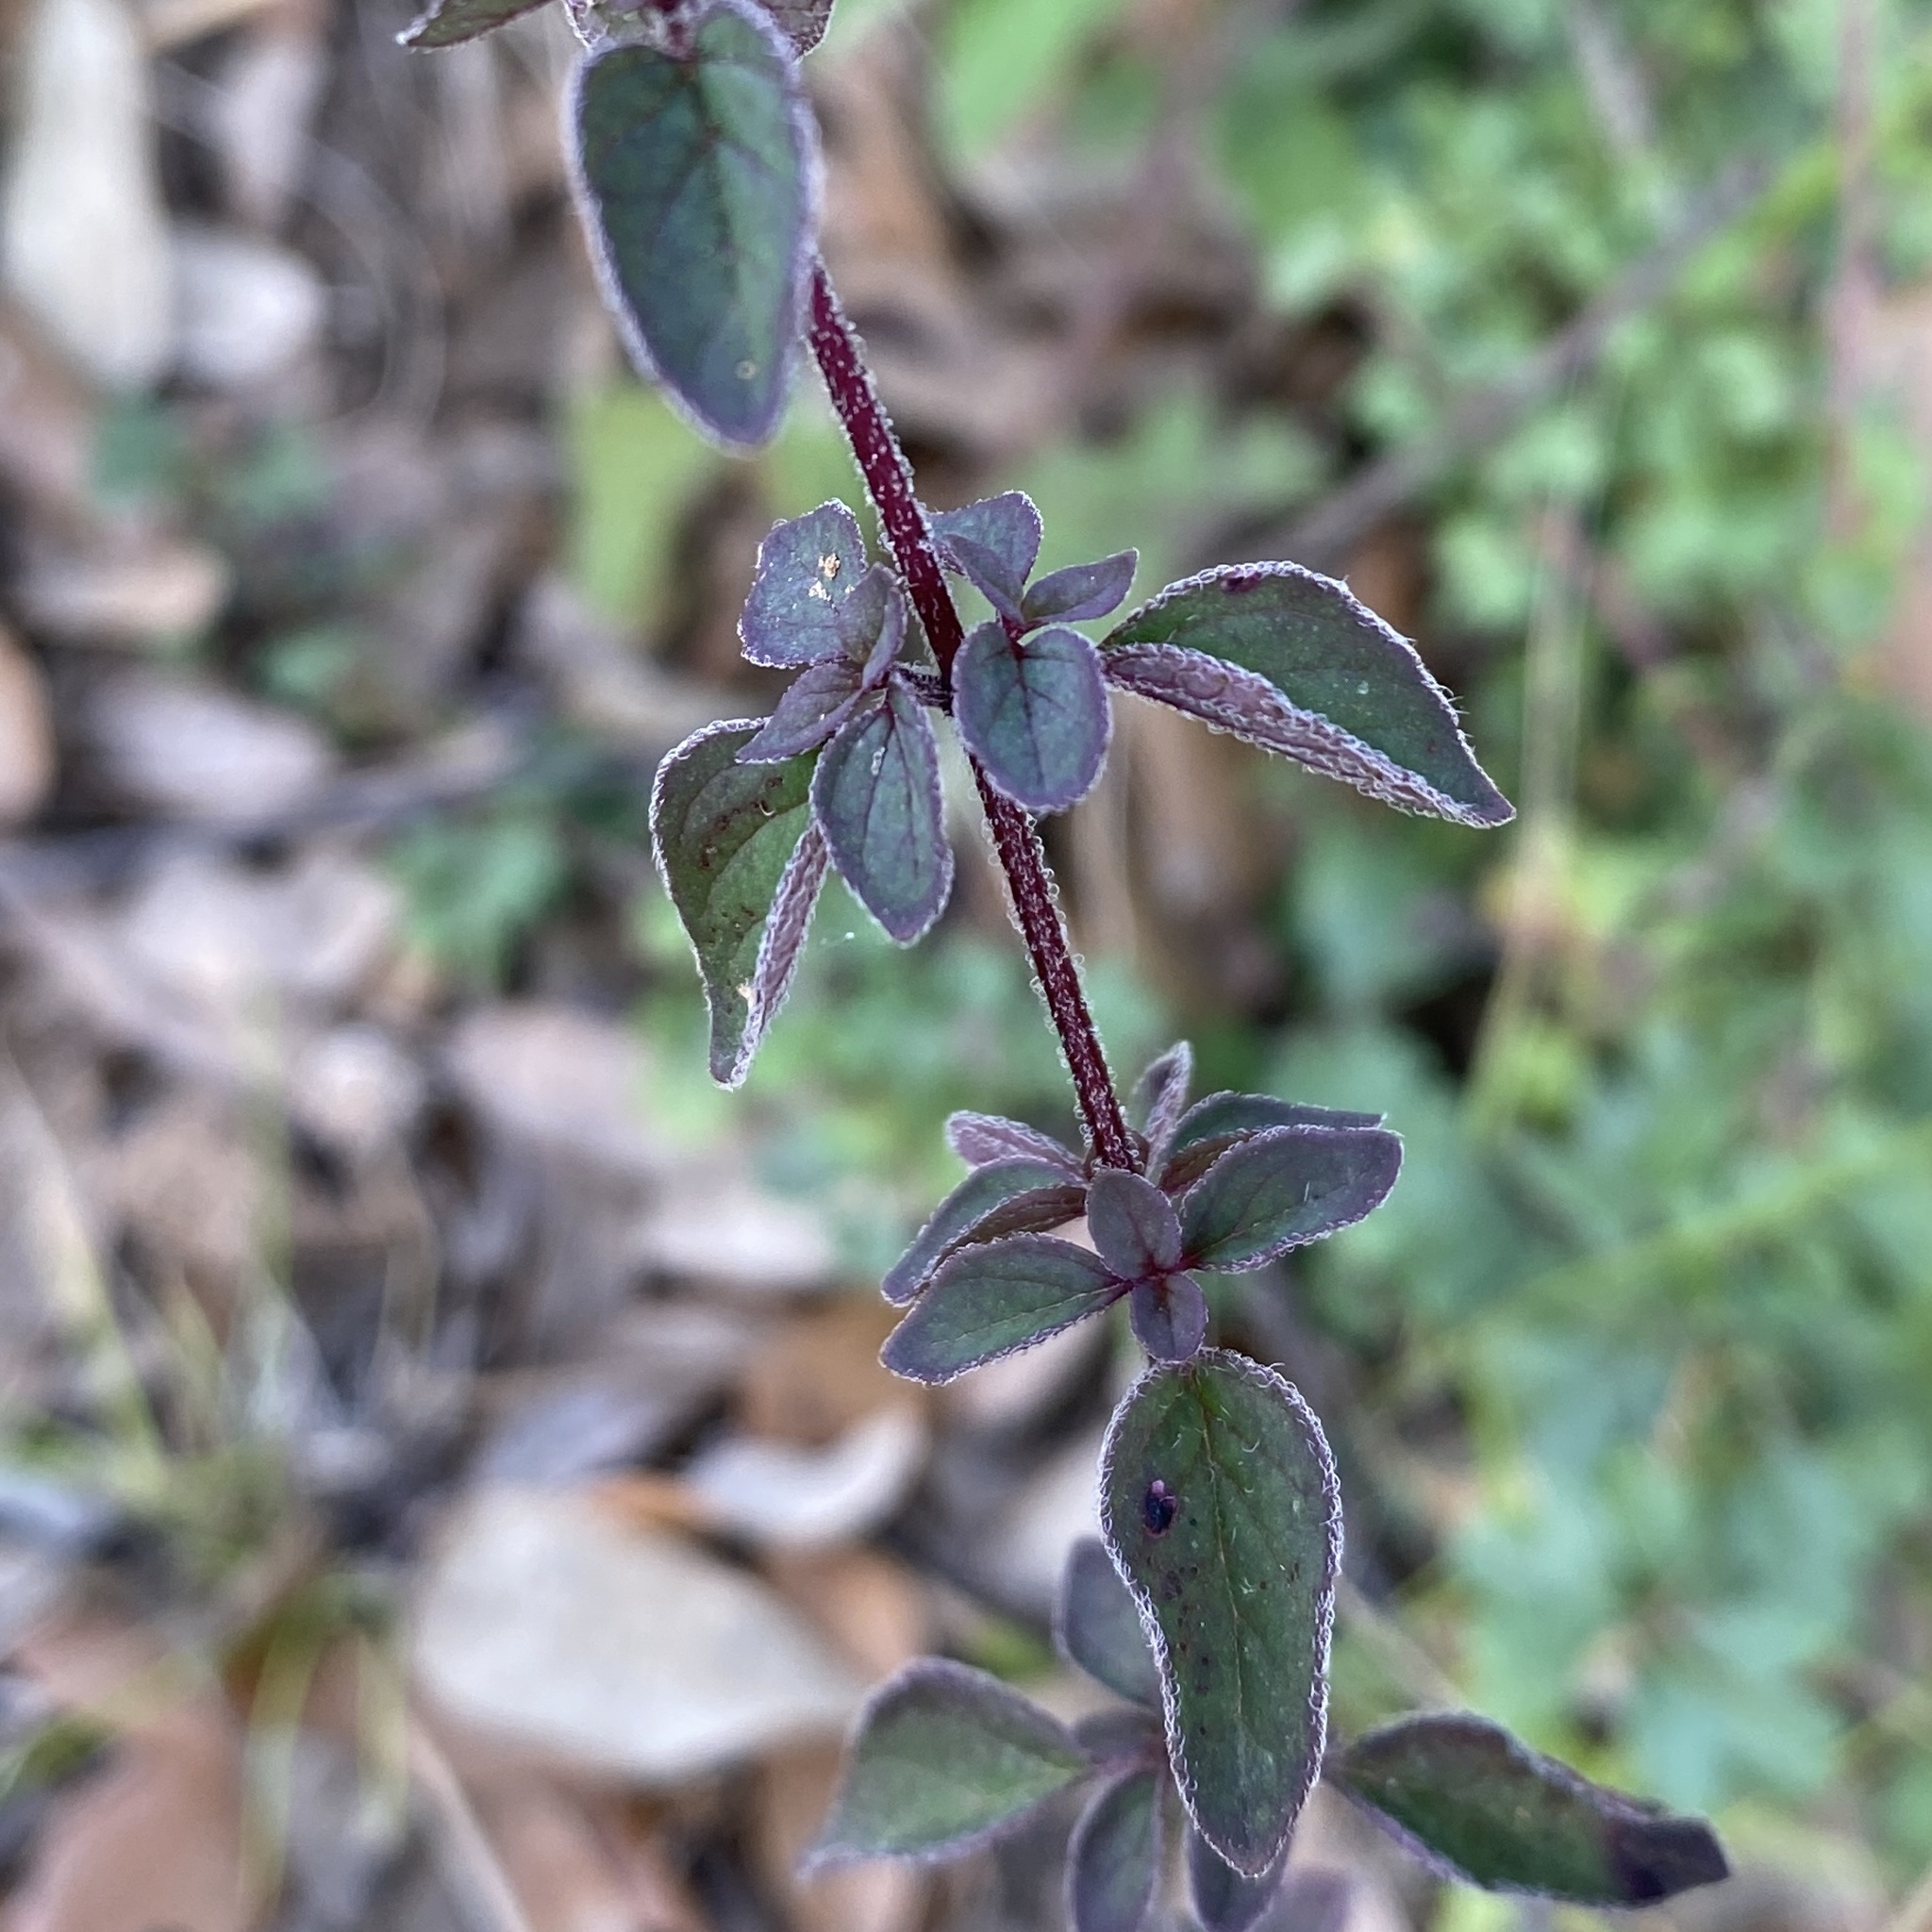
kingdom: Plantae
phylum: Tracheophyta
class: Magnoliopsida
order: Lamiales
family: Lamiaceae
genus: Origanum
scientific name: Origanum vulgare
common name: Wild marjoram
